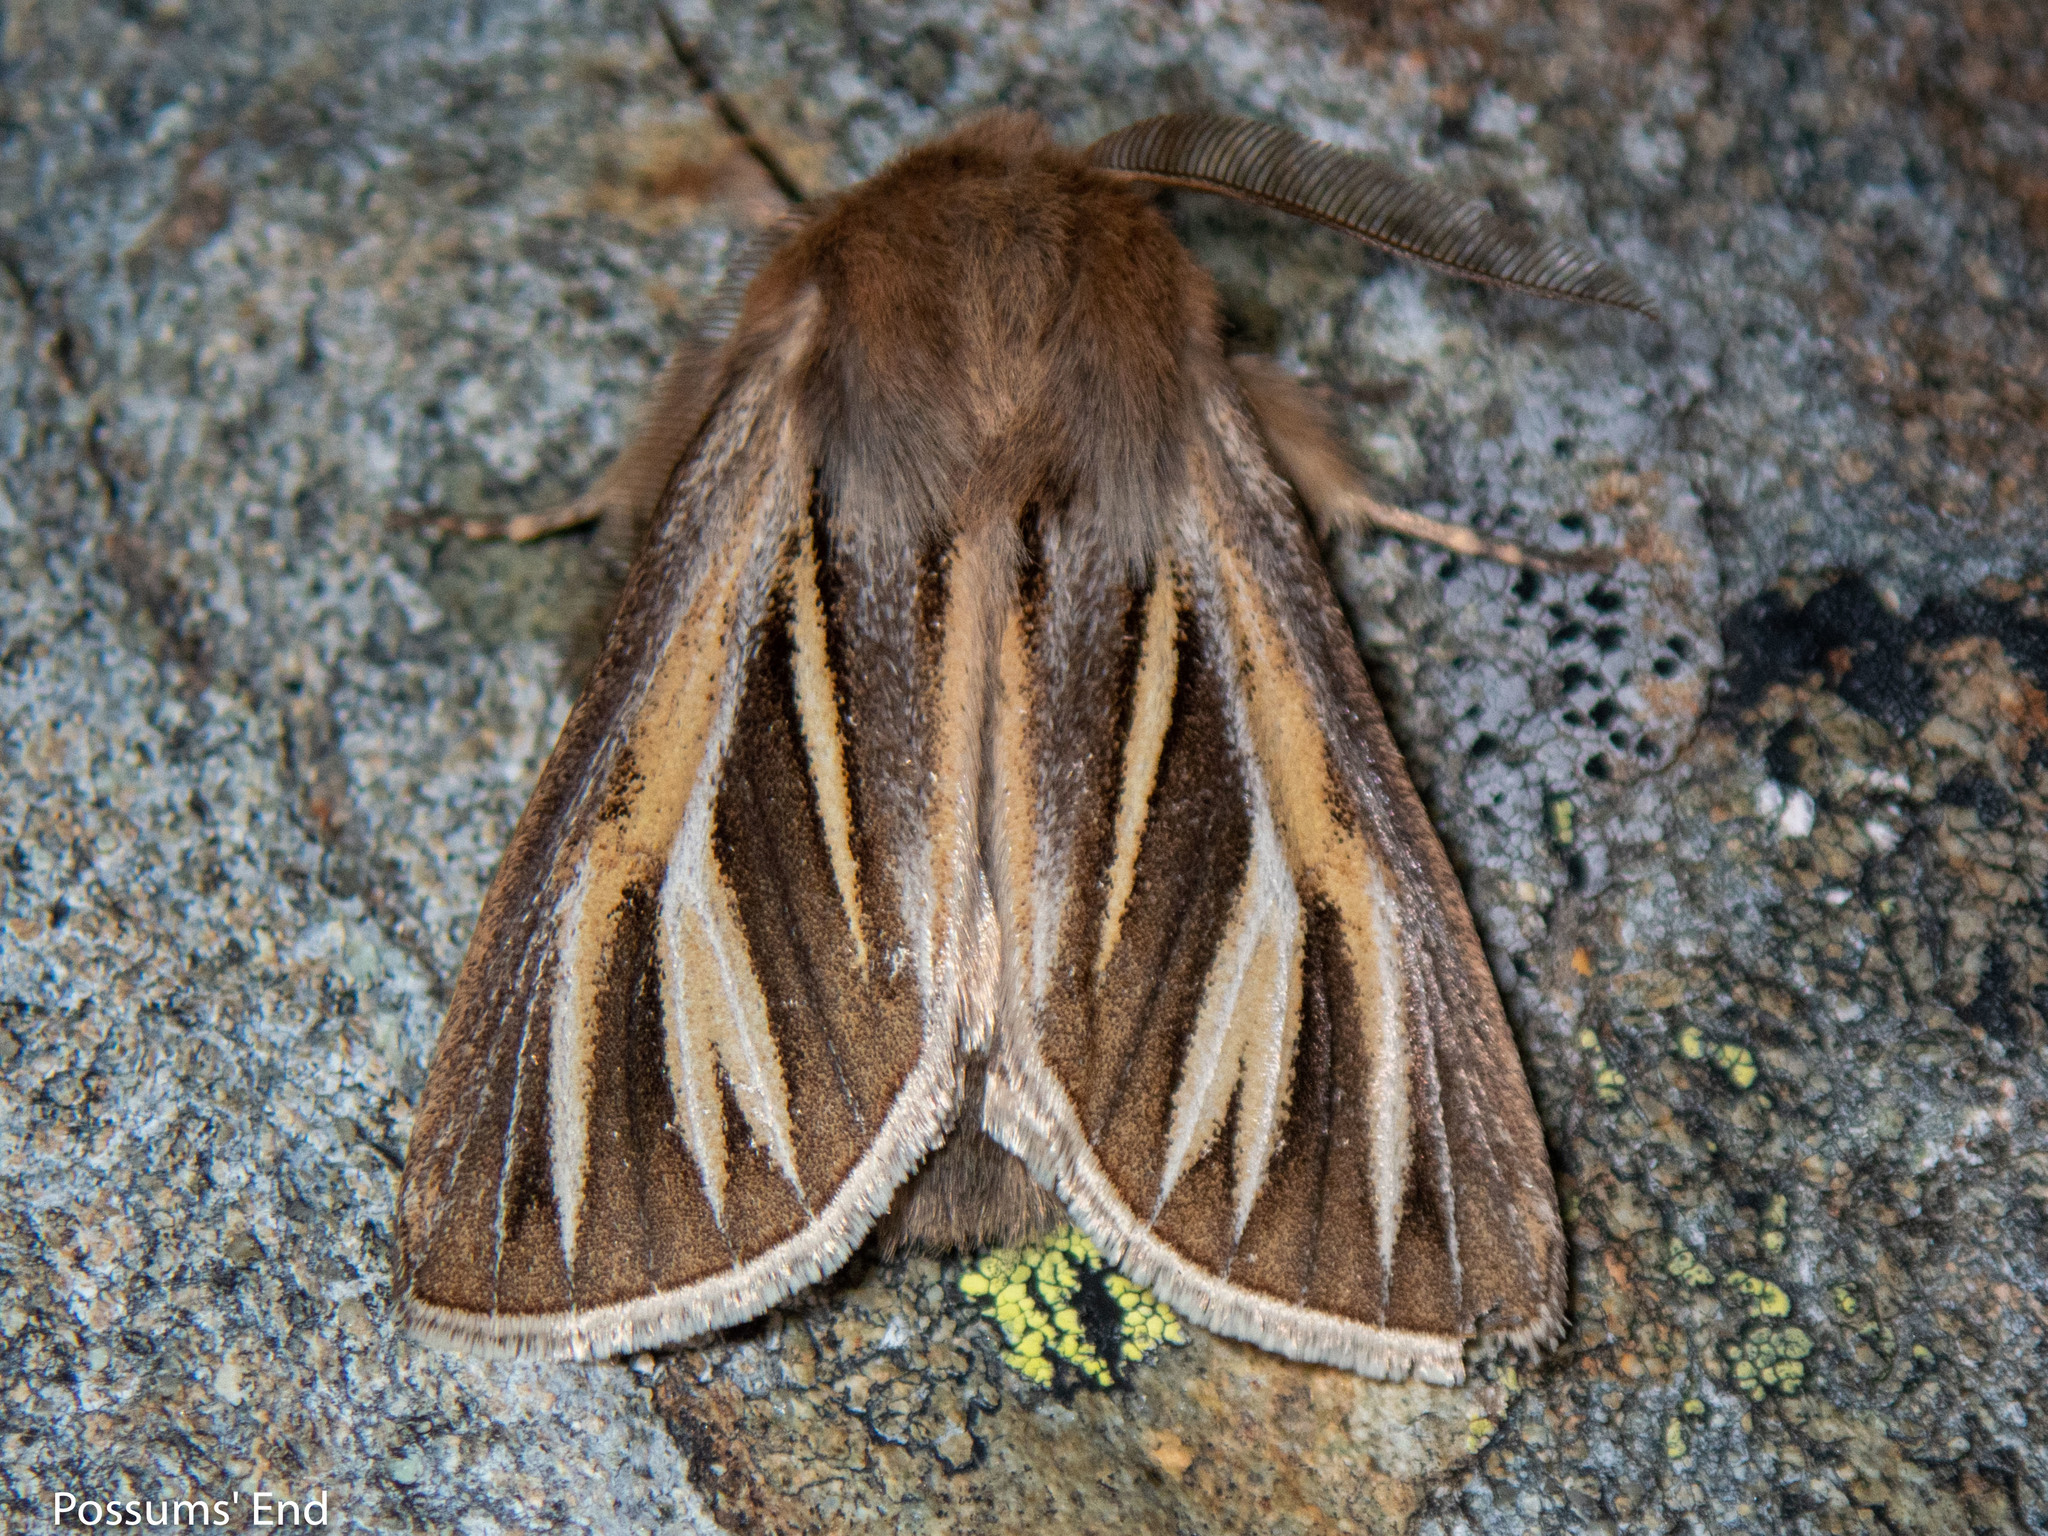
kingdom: Animalia
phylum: Arthropoda
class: Insecta
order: Lepidoptera
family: Noctuidae
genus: Ichneutica
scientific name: Ichneutica caraunias
